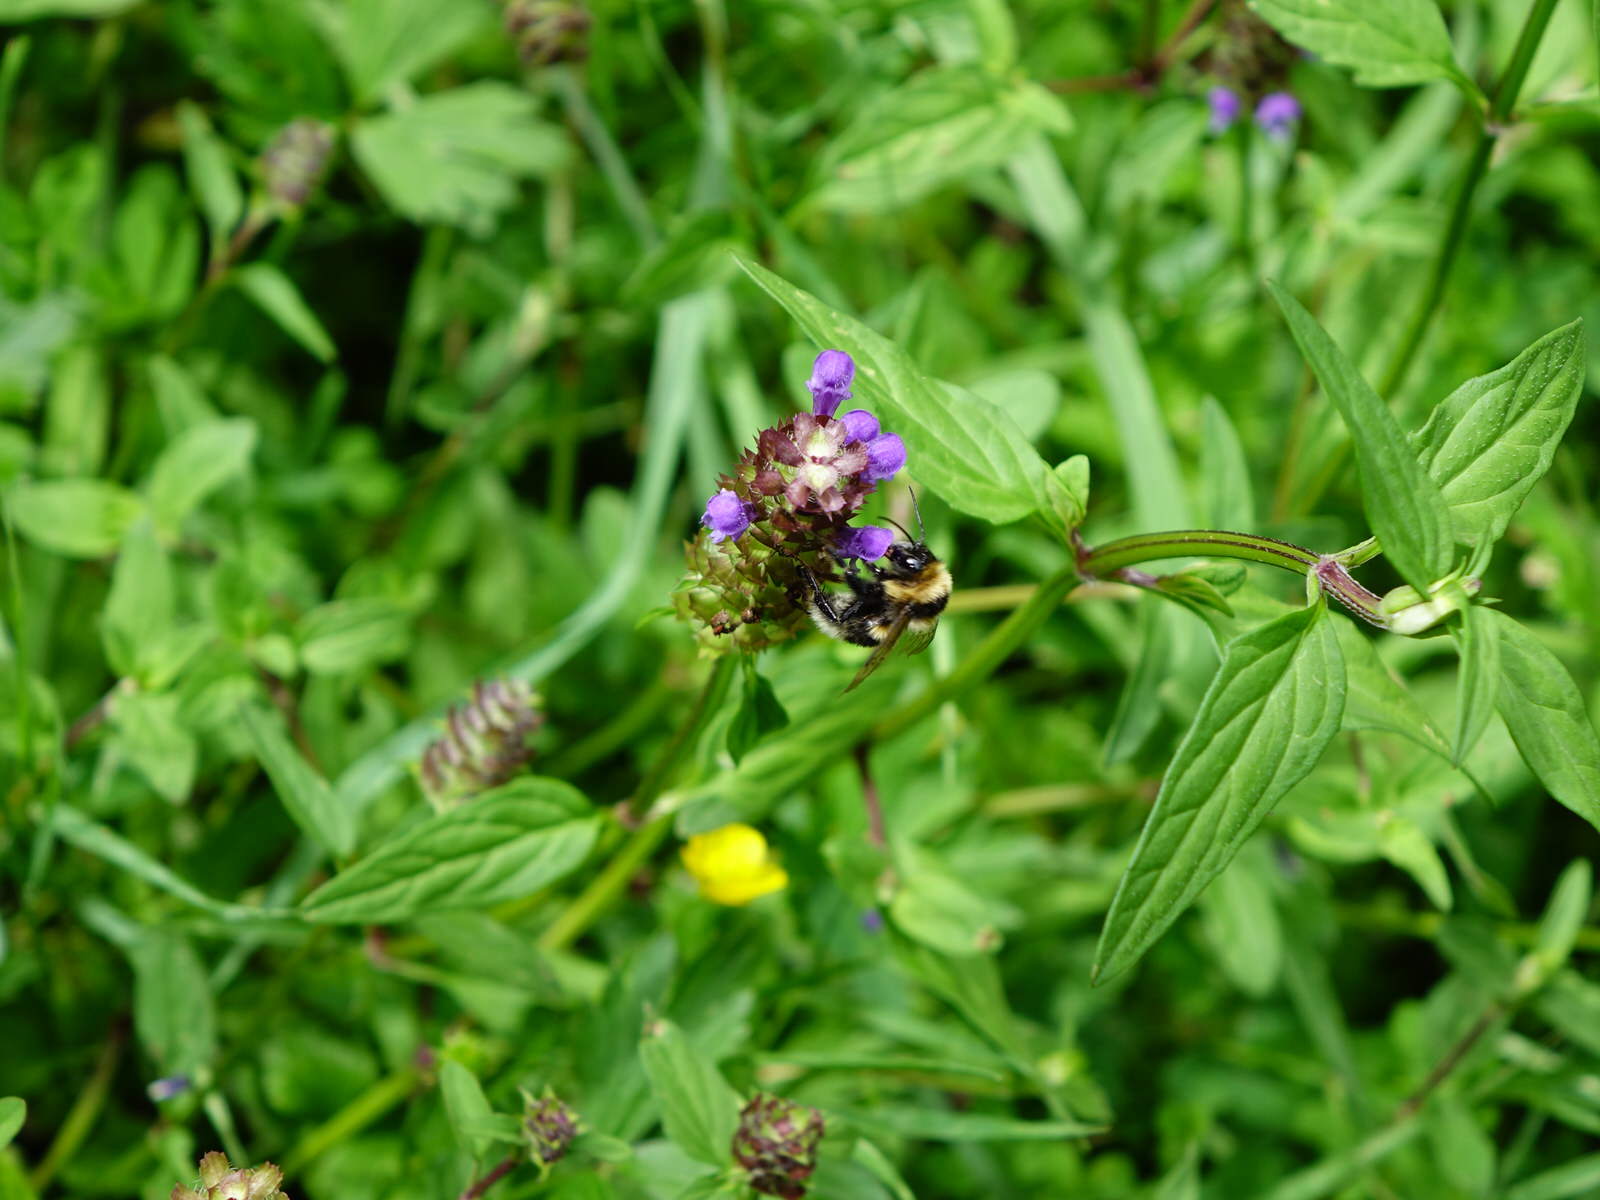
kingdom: Animalia
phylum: Arthropoda
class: Insecta
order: Hymenoptera
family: Apidae
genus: Bombus
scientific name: Bombus ruderatus
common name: Large garden bumblebee
